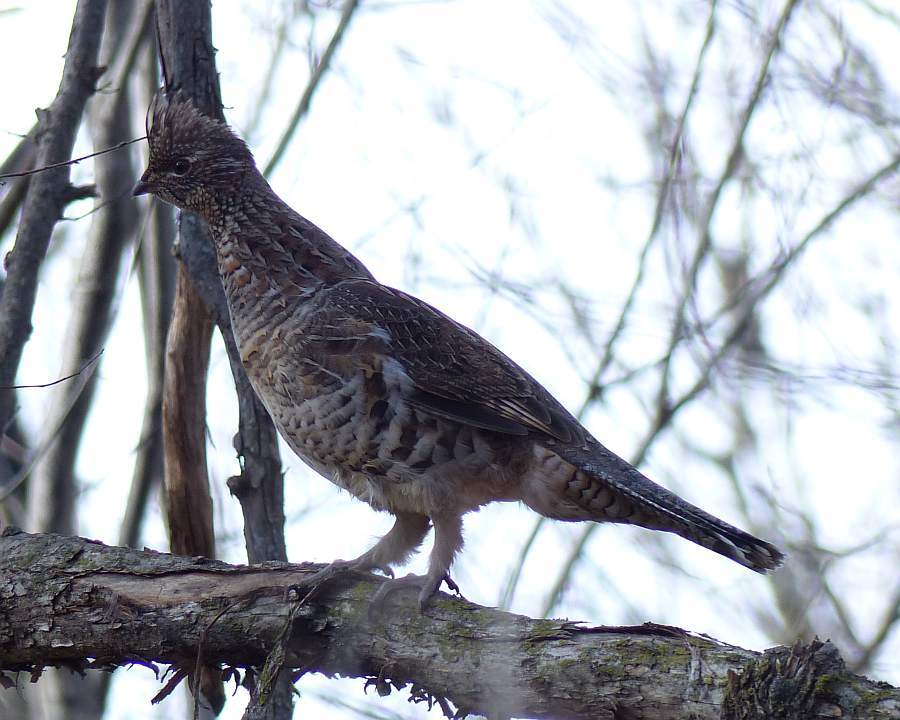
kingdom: Animalia
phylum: Chordata
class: Aves
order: Galliformes
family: Phasianidae
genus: Bonasa
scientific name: Bonasa umbellus
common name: Ruffed grouse
